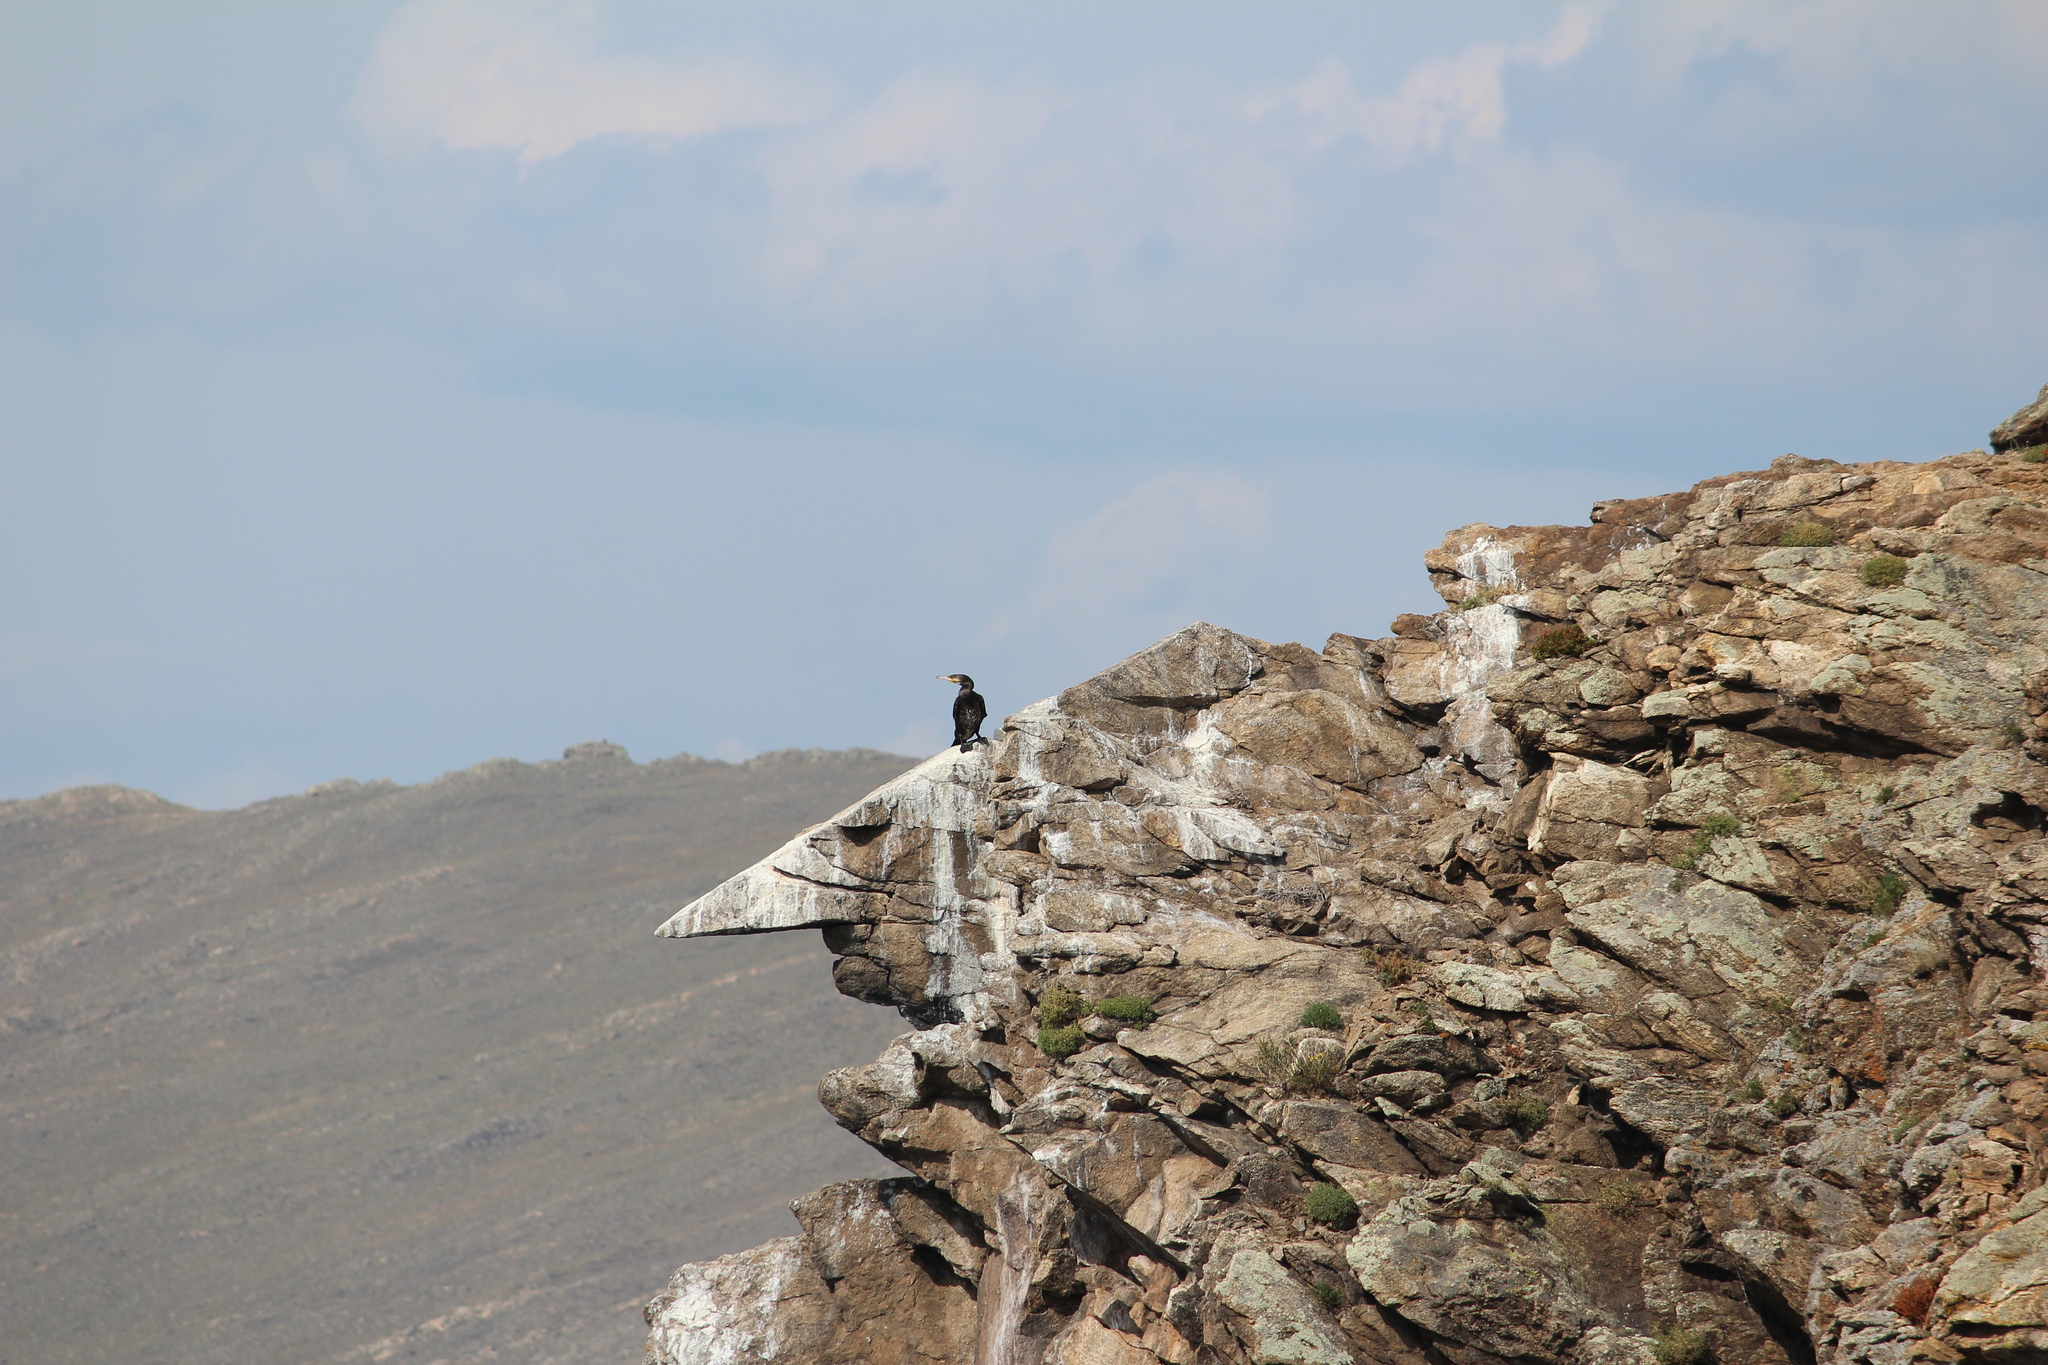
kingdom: Animalia
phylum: Chordata
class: Aves
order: Suliformes
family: Phalacrocoracidae
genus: Phalacrocorax
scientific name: Phalacrocorax carbo
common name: Great cormorant
